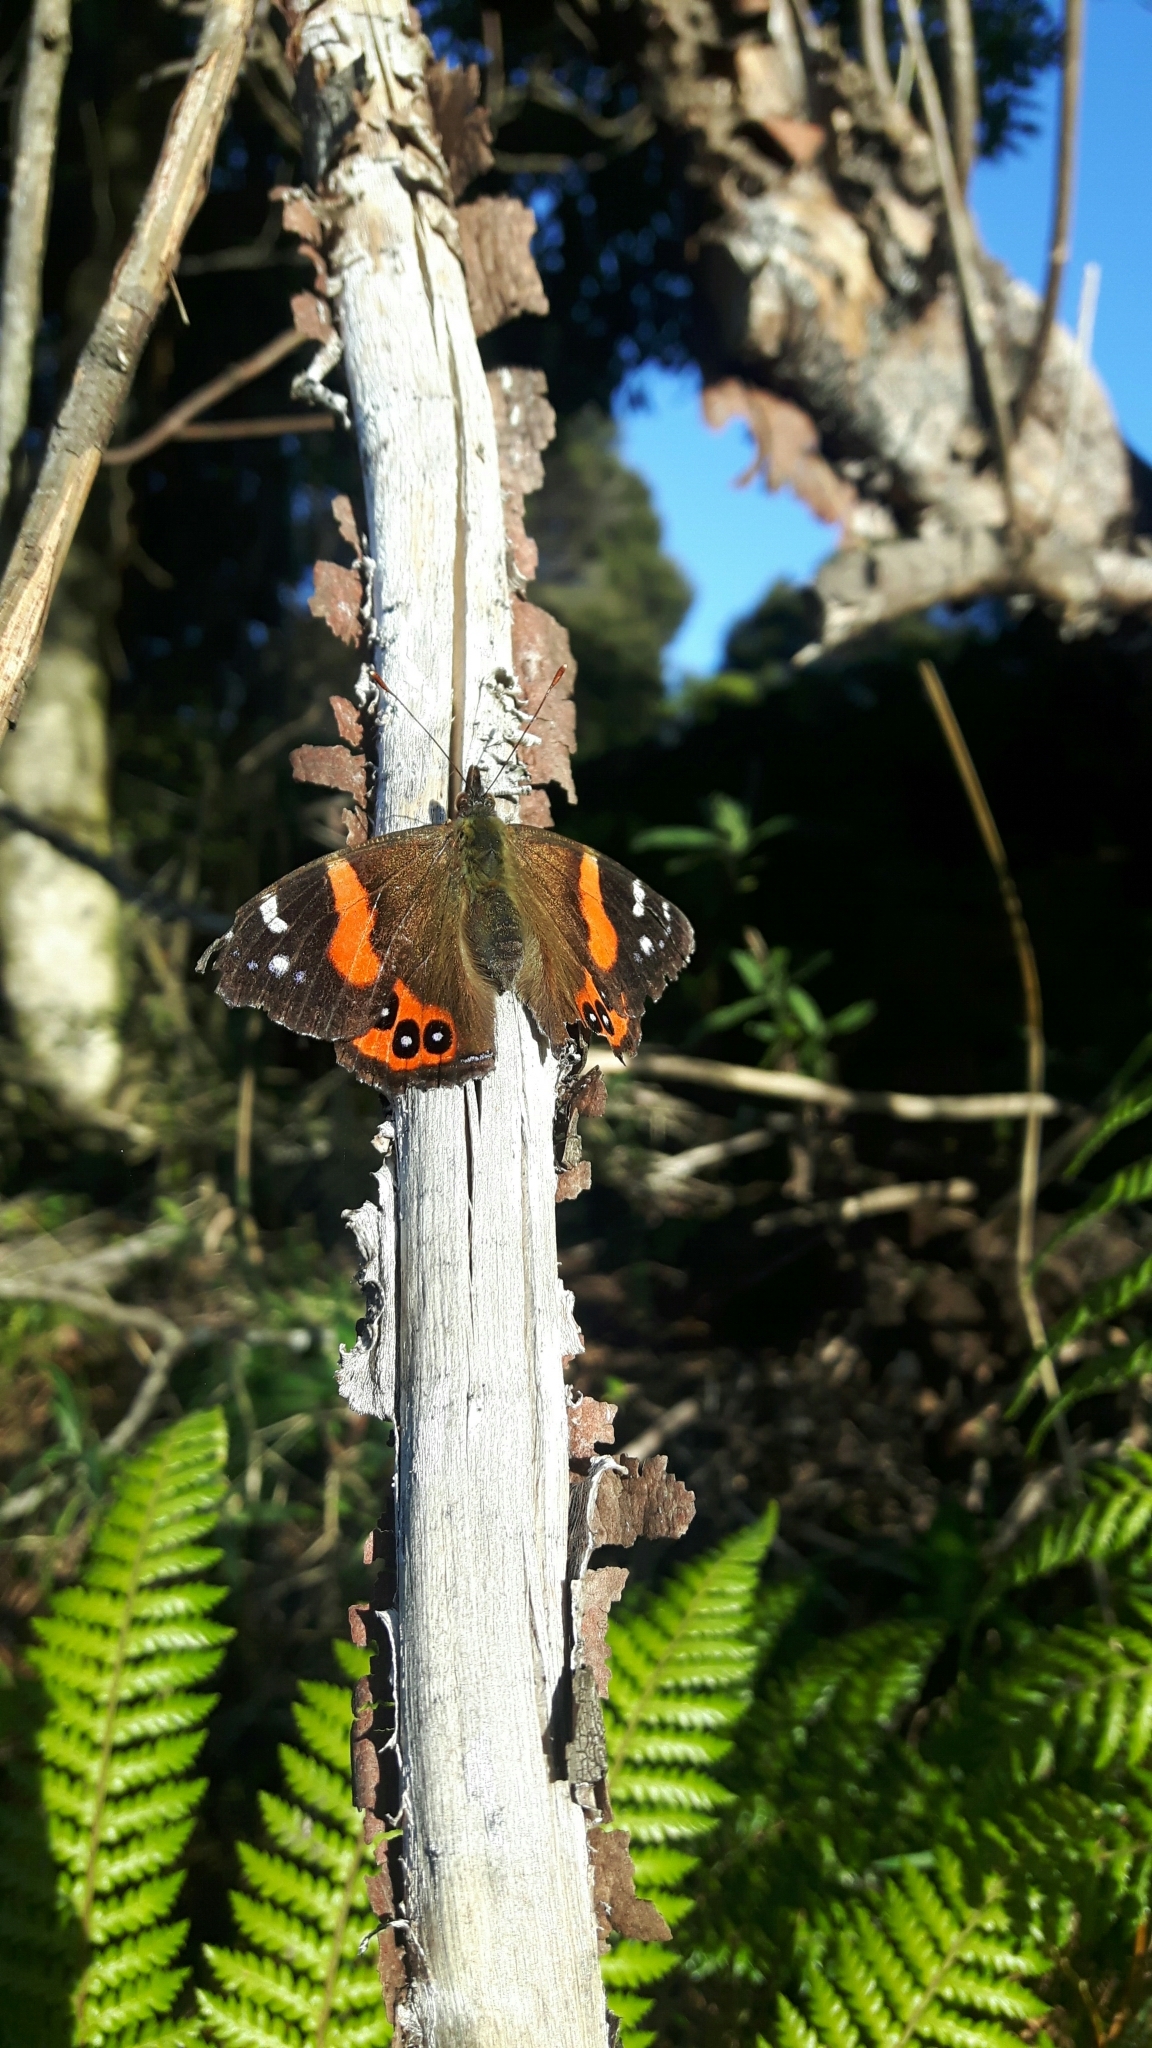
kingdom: Animalia
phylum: Arthropoda
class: Insecta
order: Lepidoptera
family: Nymphalidae
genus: Vanessa
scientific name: Vanessa gonerilla
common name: New zealand red admiral
